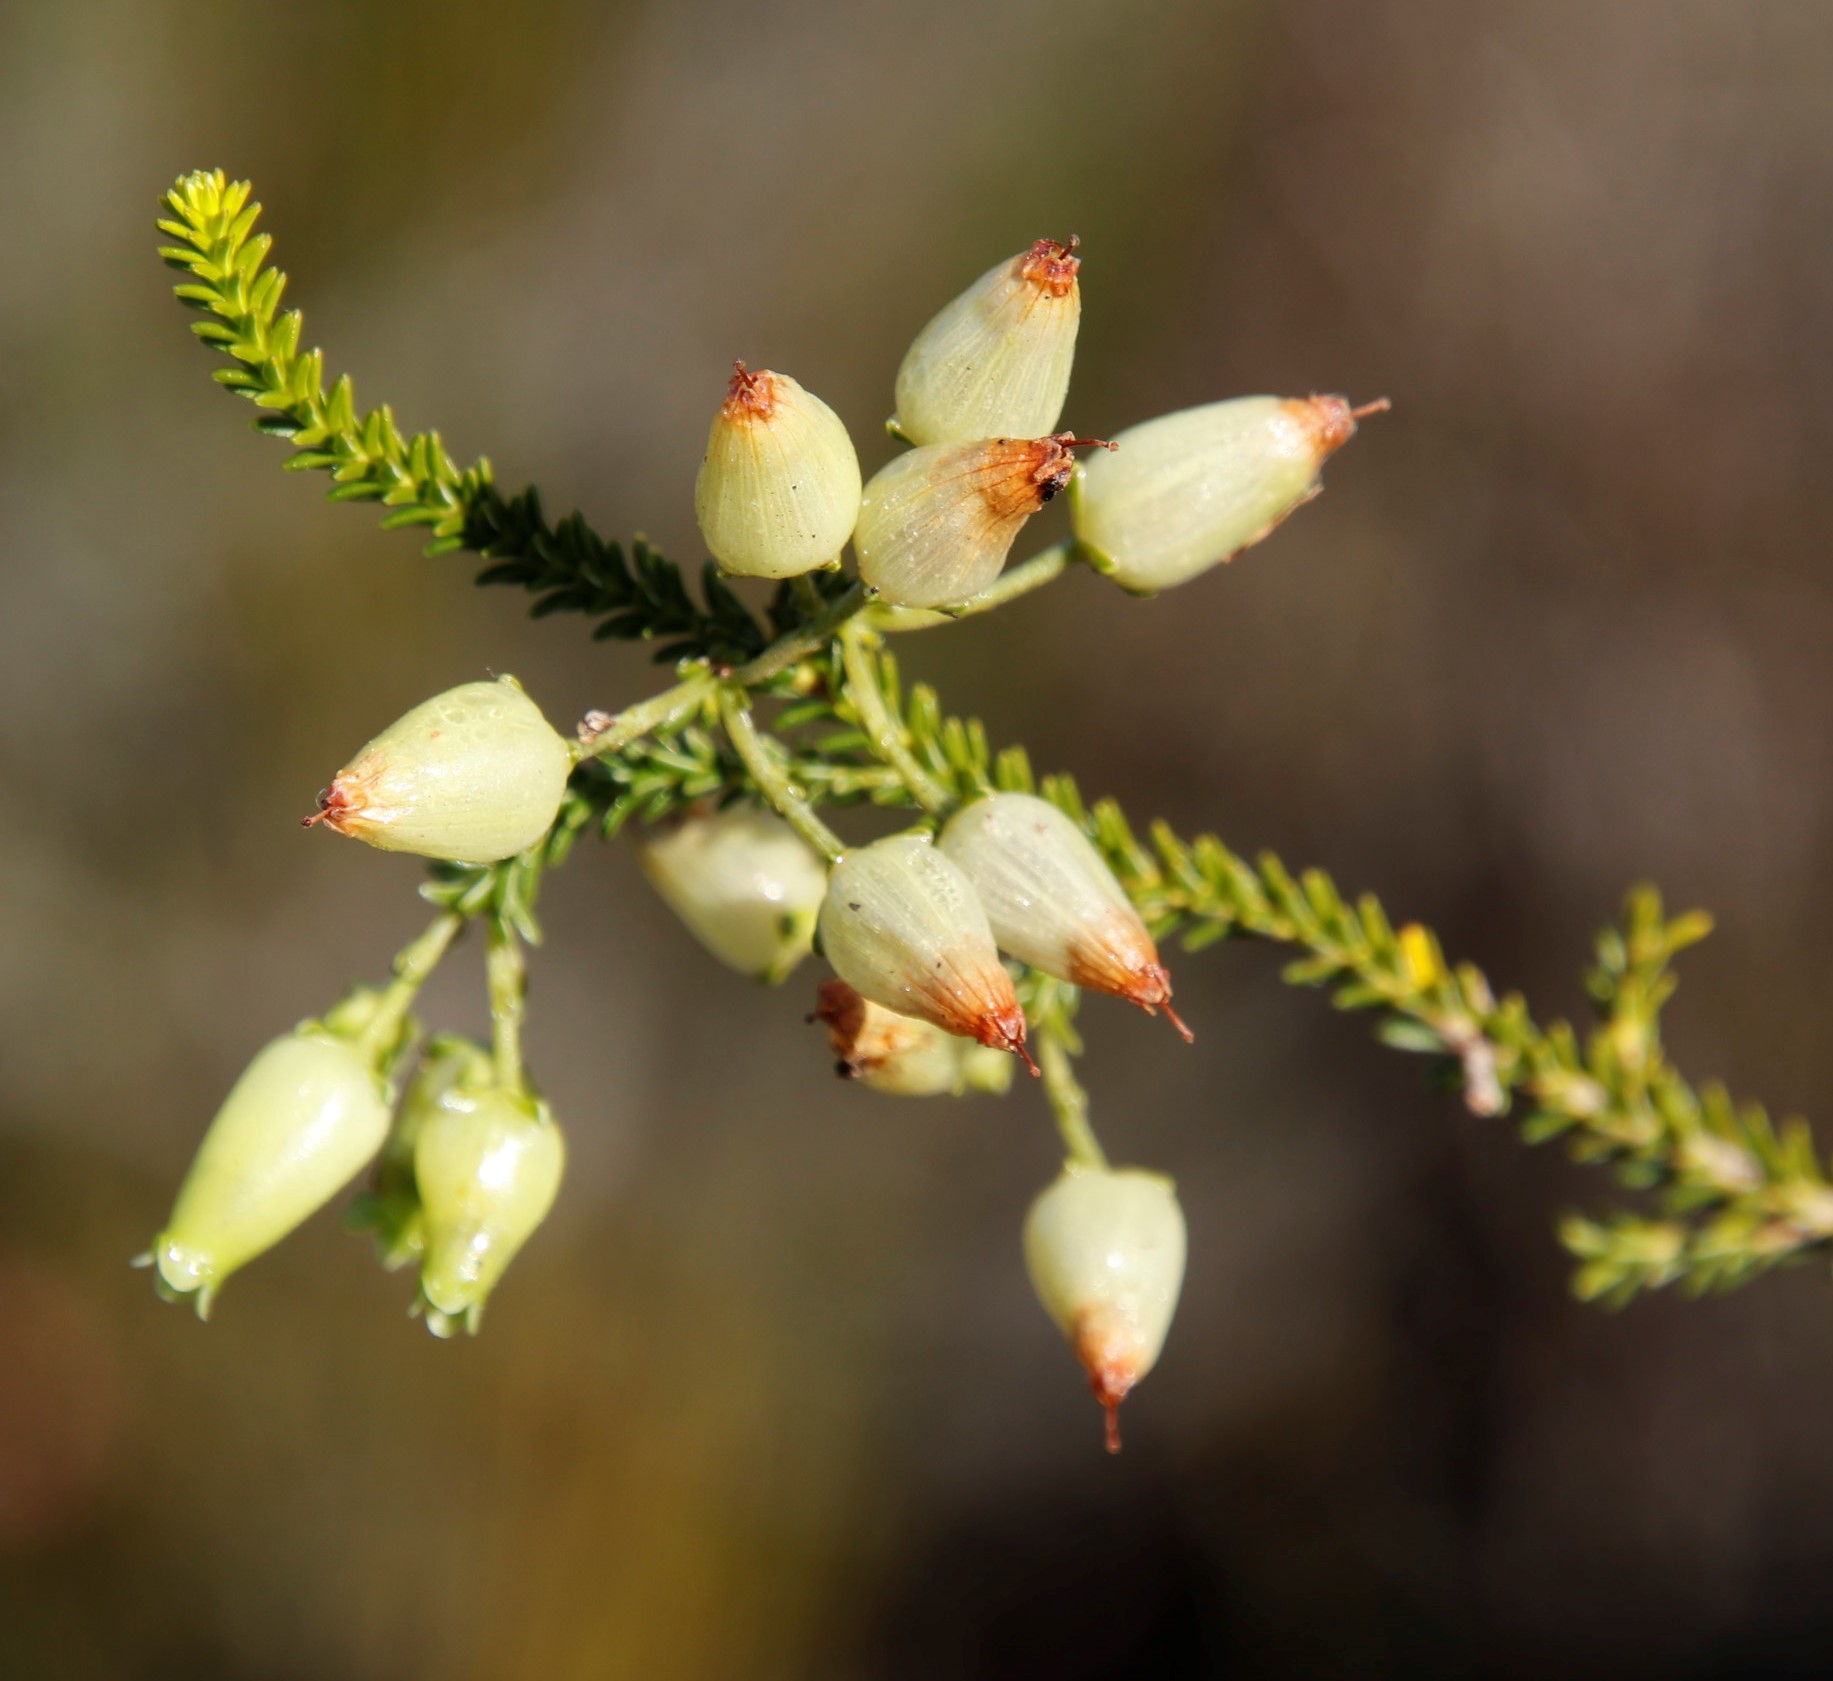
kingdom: Plantae
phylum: Tracheophyta
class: Magnoliopsida
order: Ericales
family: Ericaceae
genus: Erica
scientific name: Erica urna-viridis
